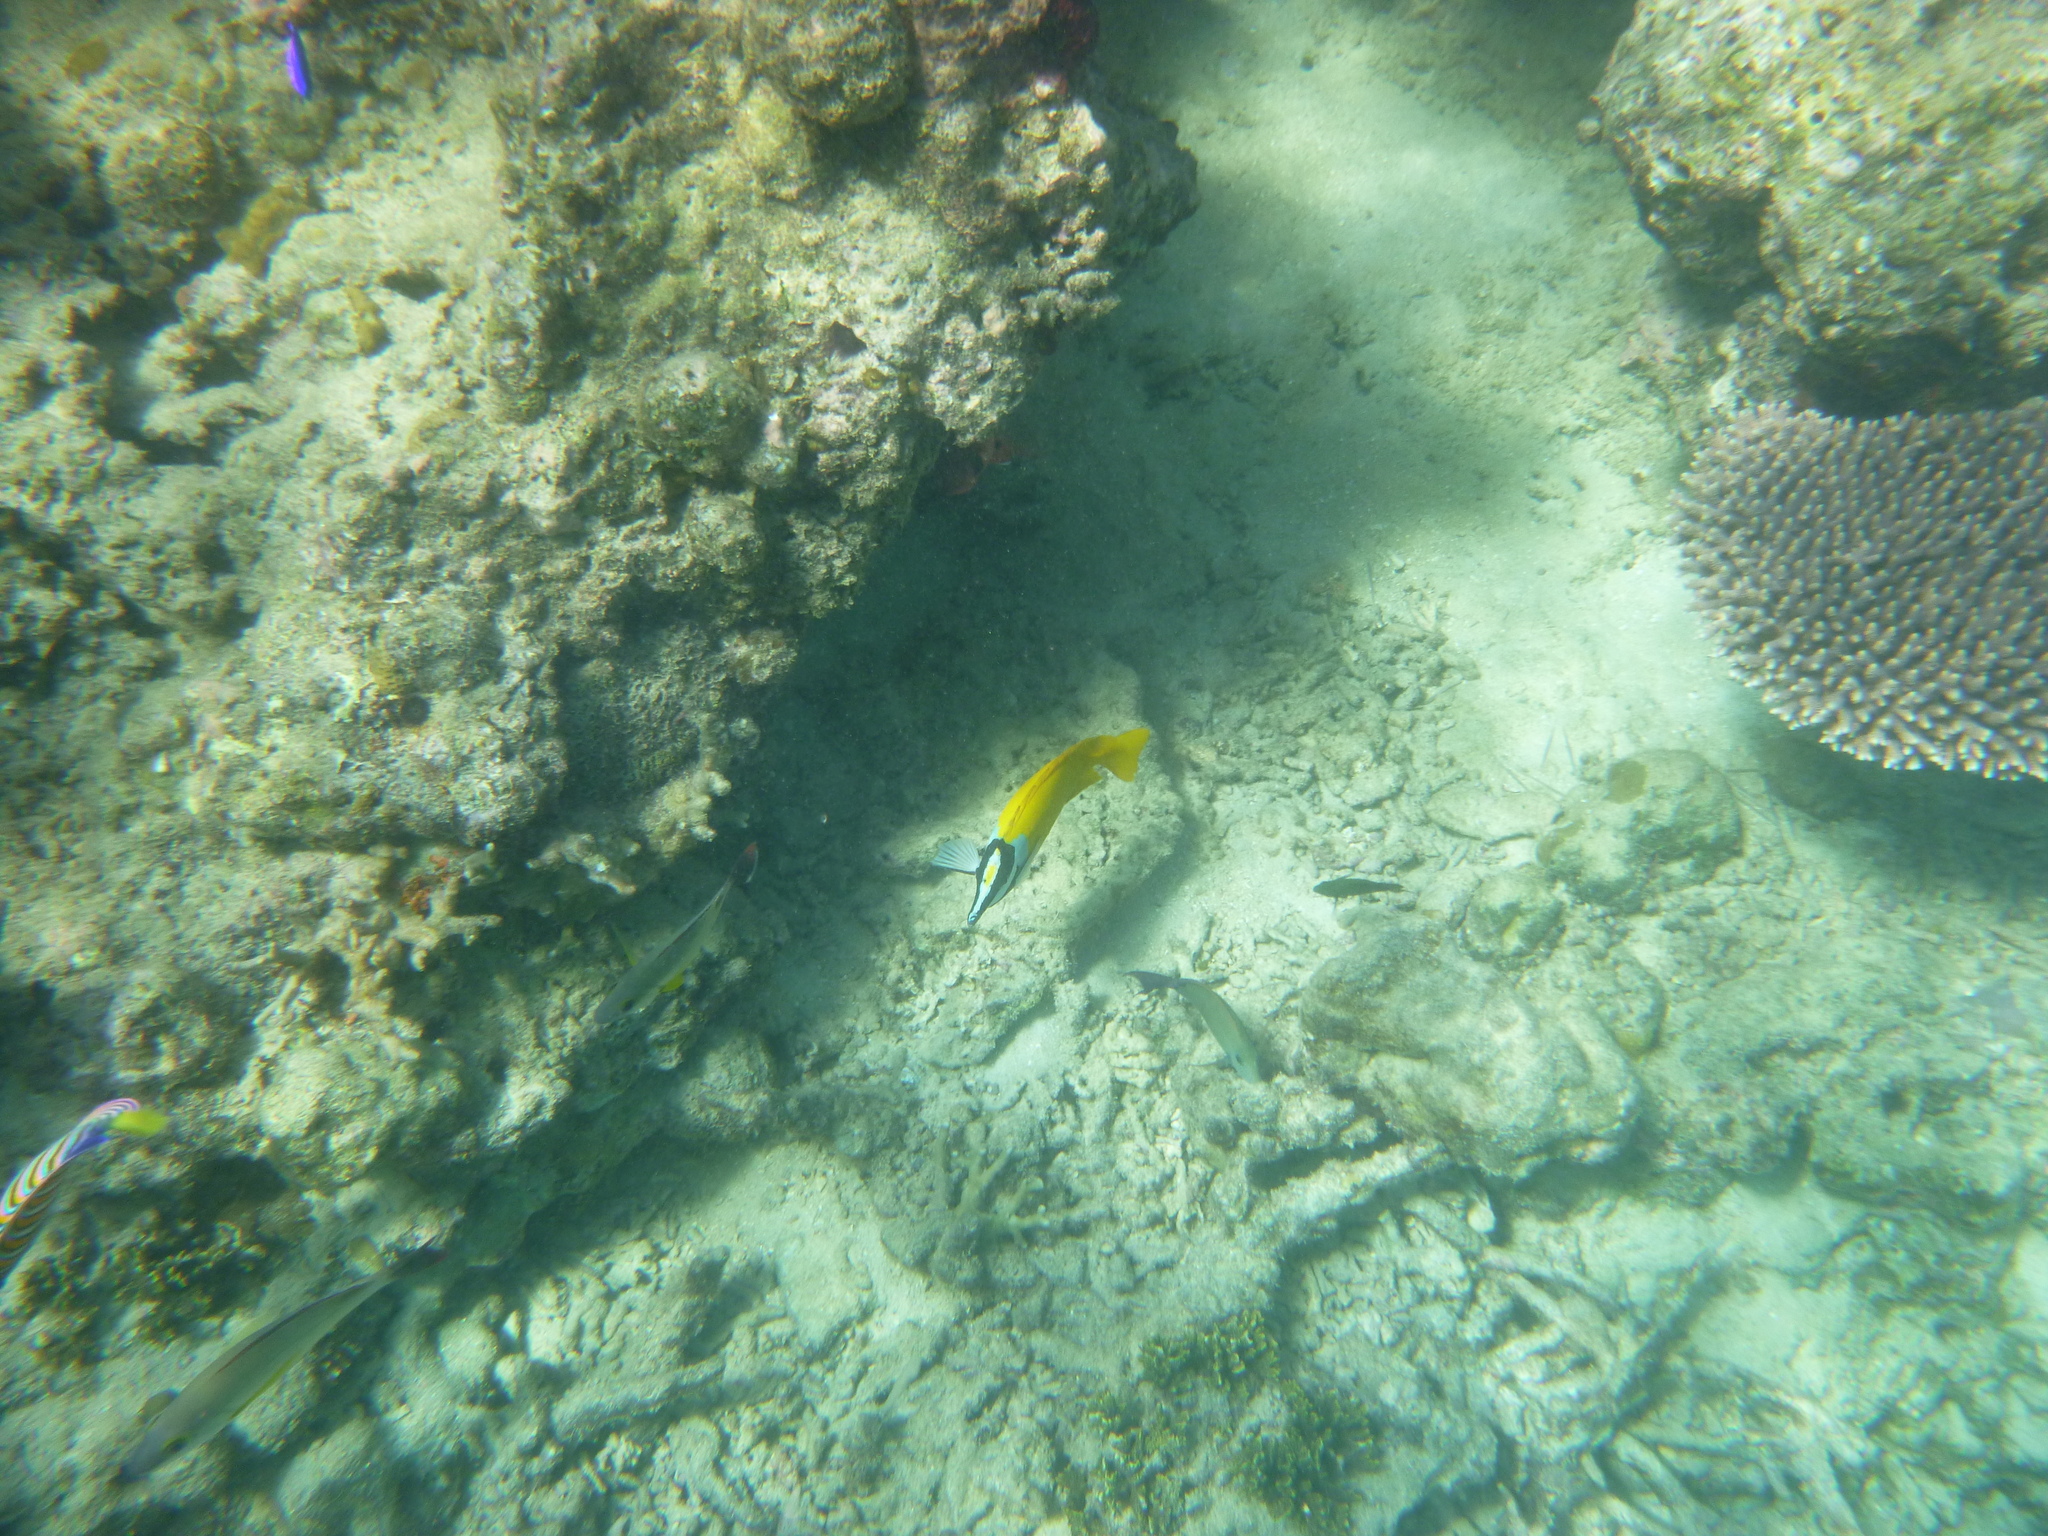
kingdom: Animalia
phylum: Chordata
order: Perciformes
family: Siganidae
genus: Siganus
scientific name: Siganus vulpinus
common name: Foxface
